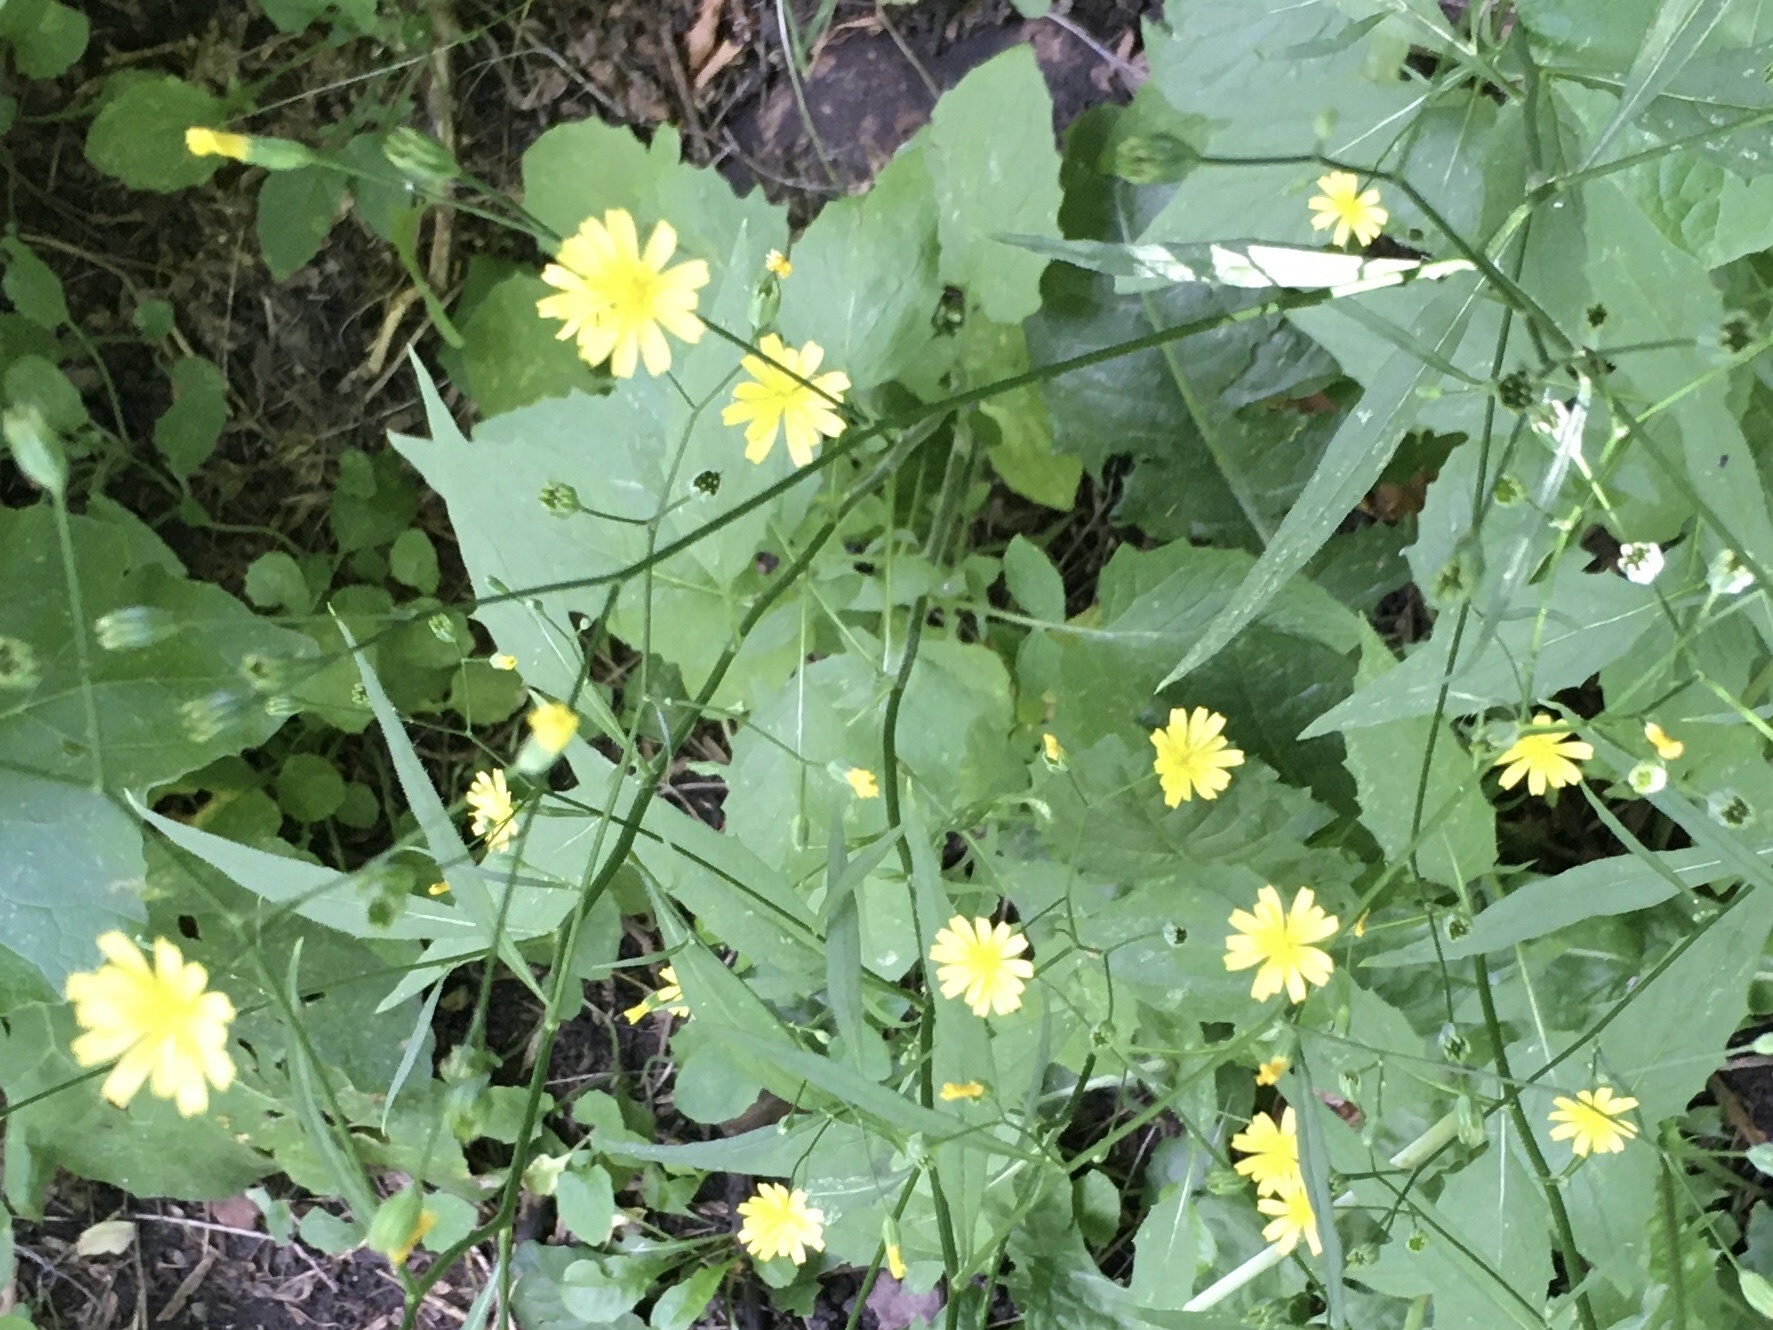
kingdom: Plantae
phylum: Tracheophyta
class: Magnoliopsida
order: Asterales
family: Asteraceae
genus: Lapsana
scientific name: Lapsana communis
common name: Nipplewort
